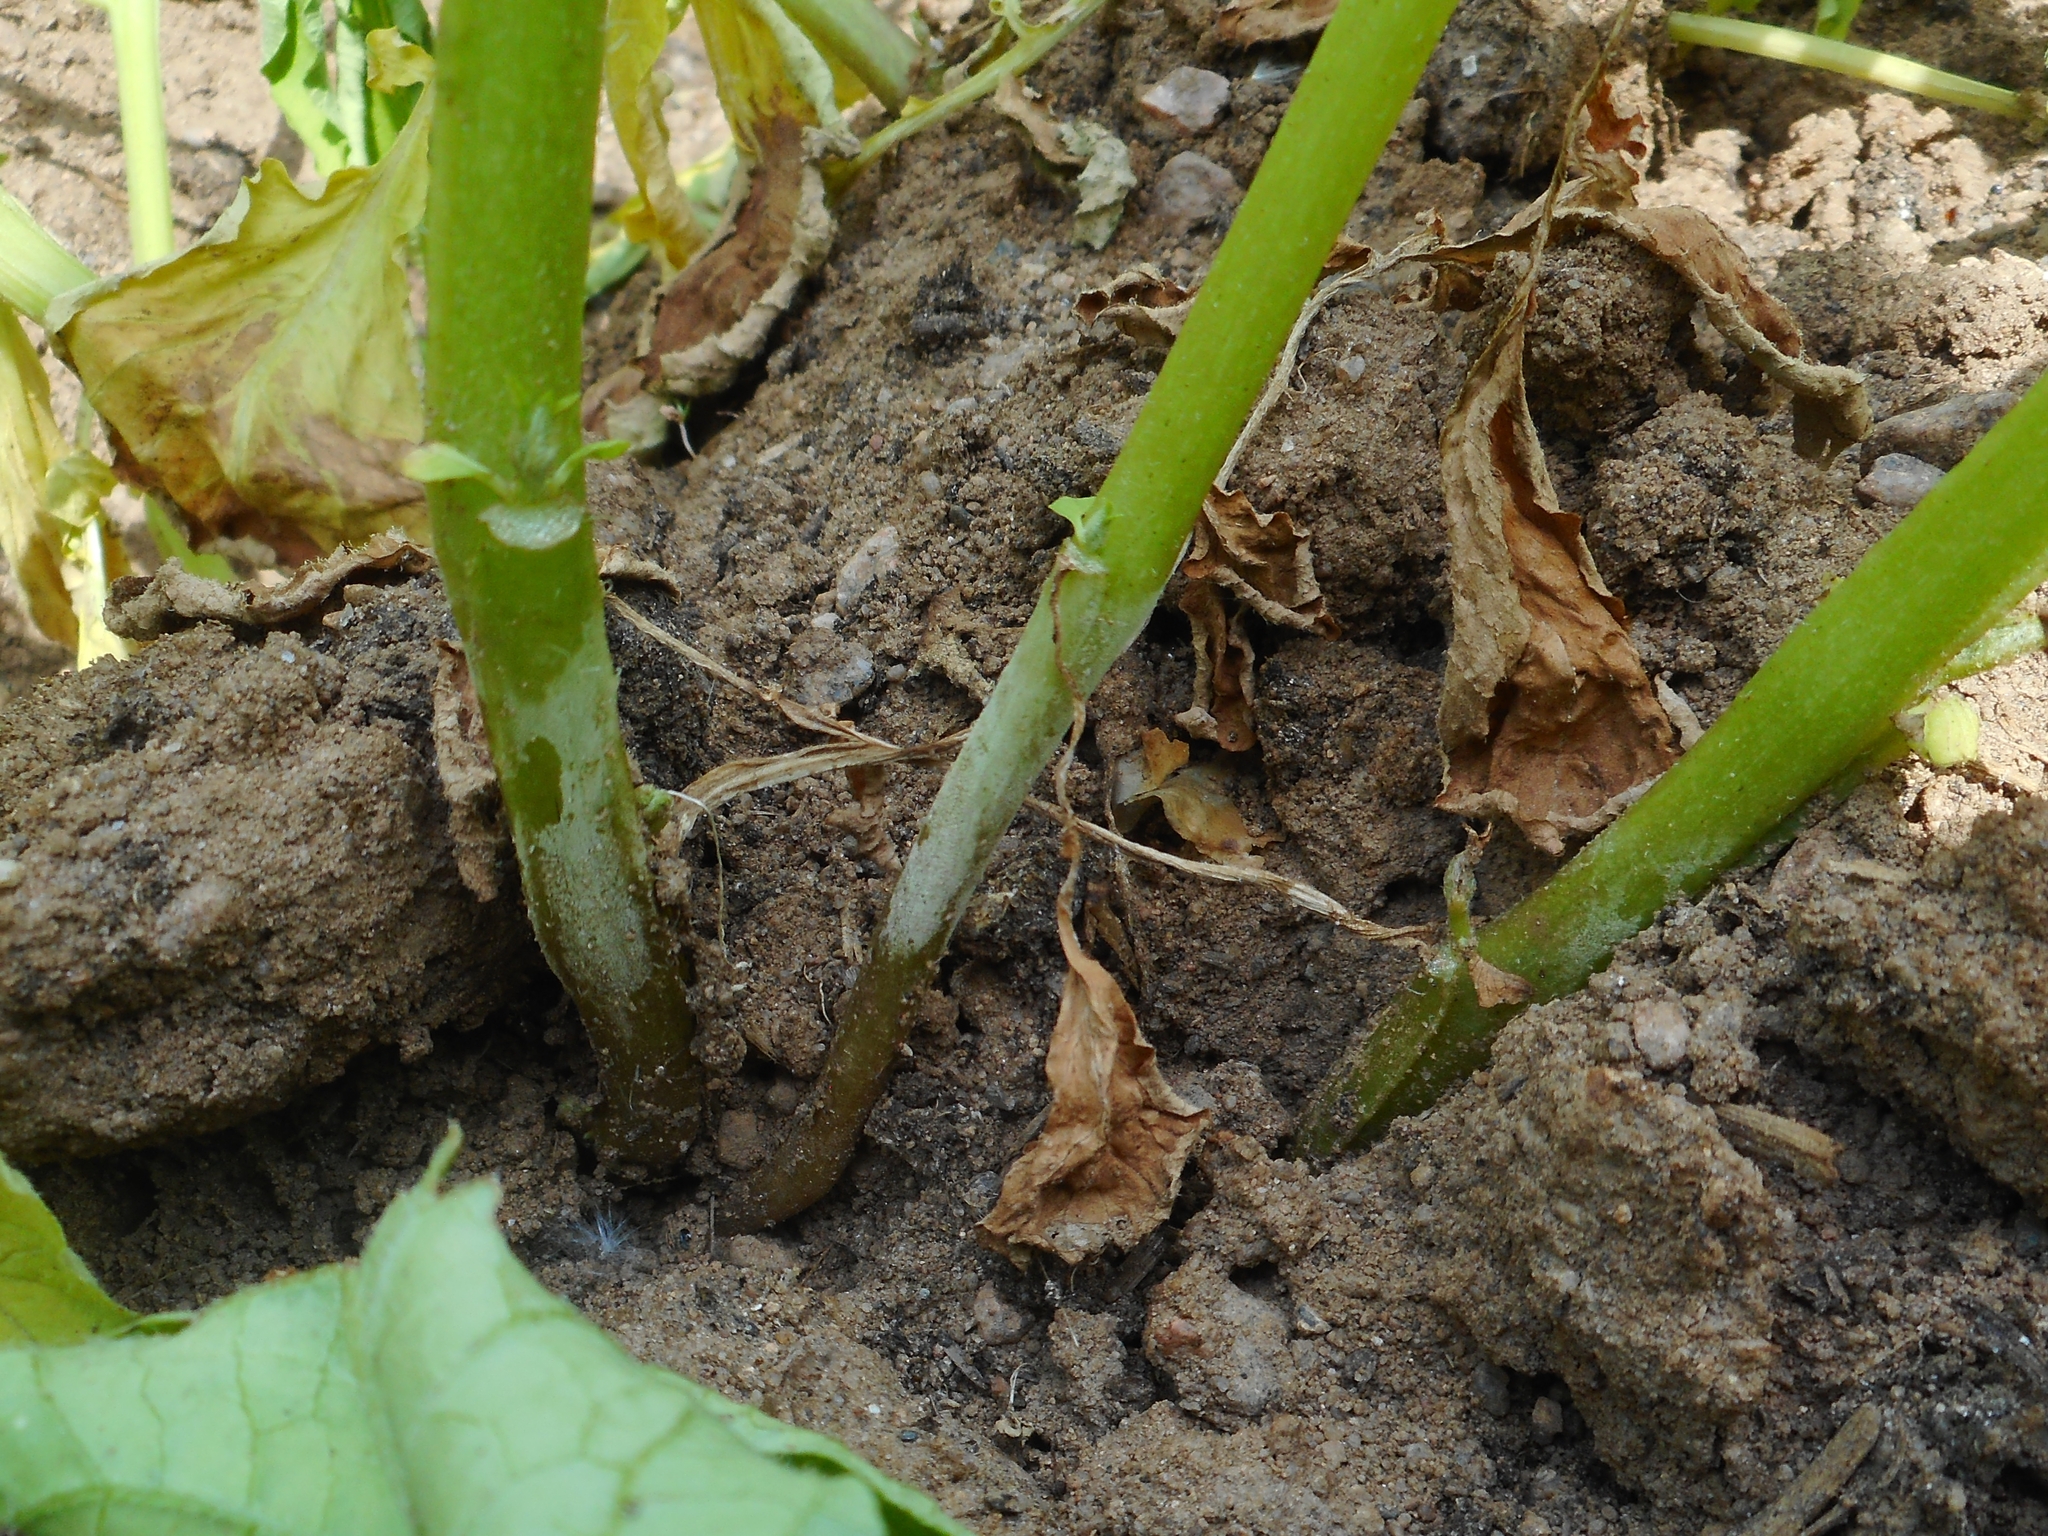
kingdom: Fungi
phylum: Basidiomycota
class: Agaricomycetes
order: Cantharellales
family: Ceratobasidiaceae
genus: Rhizoctonia
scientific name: Rhizoctonia solani
